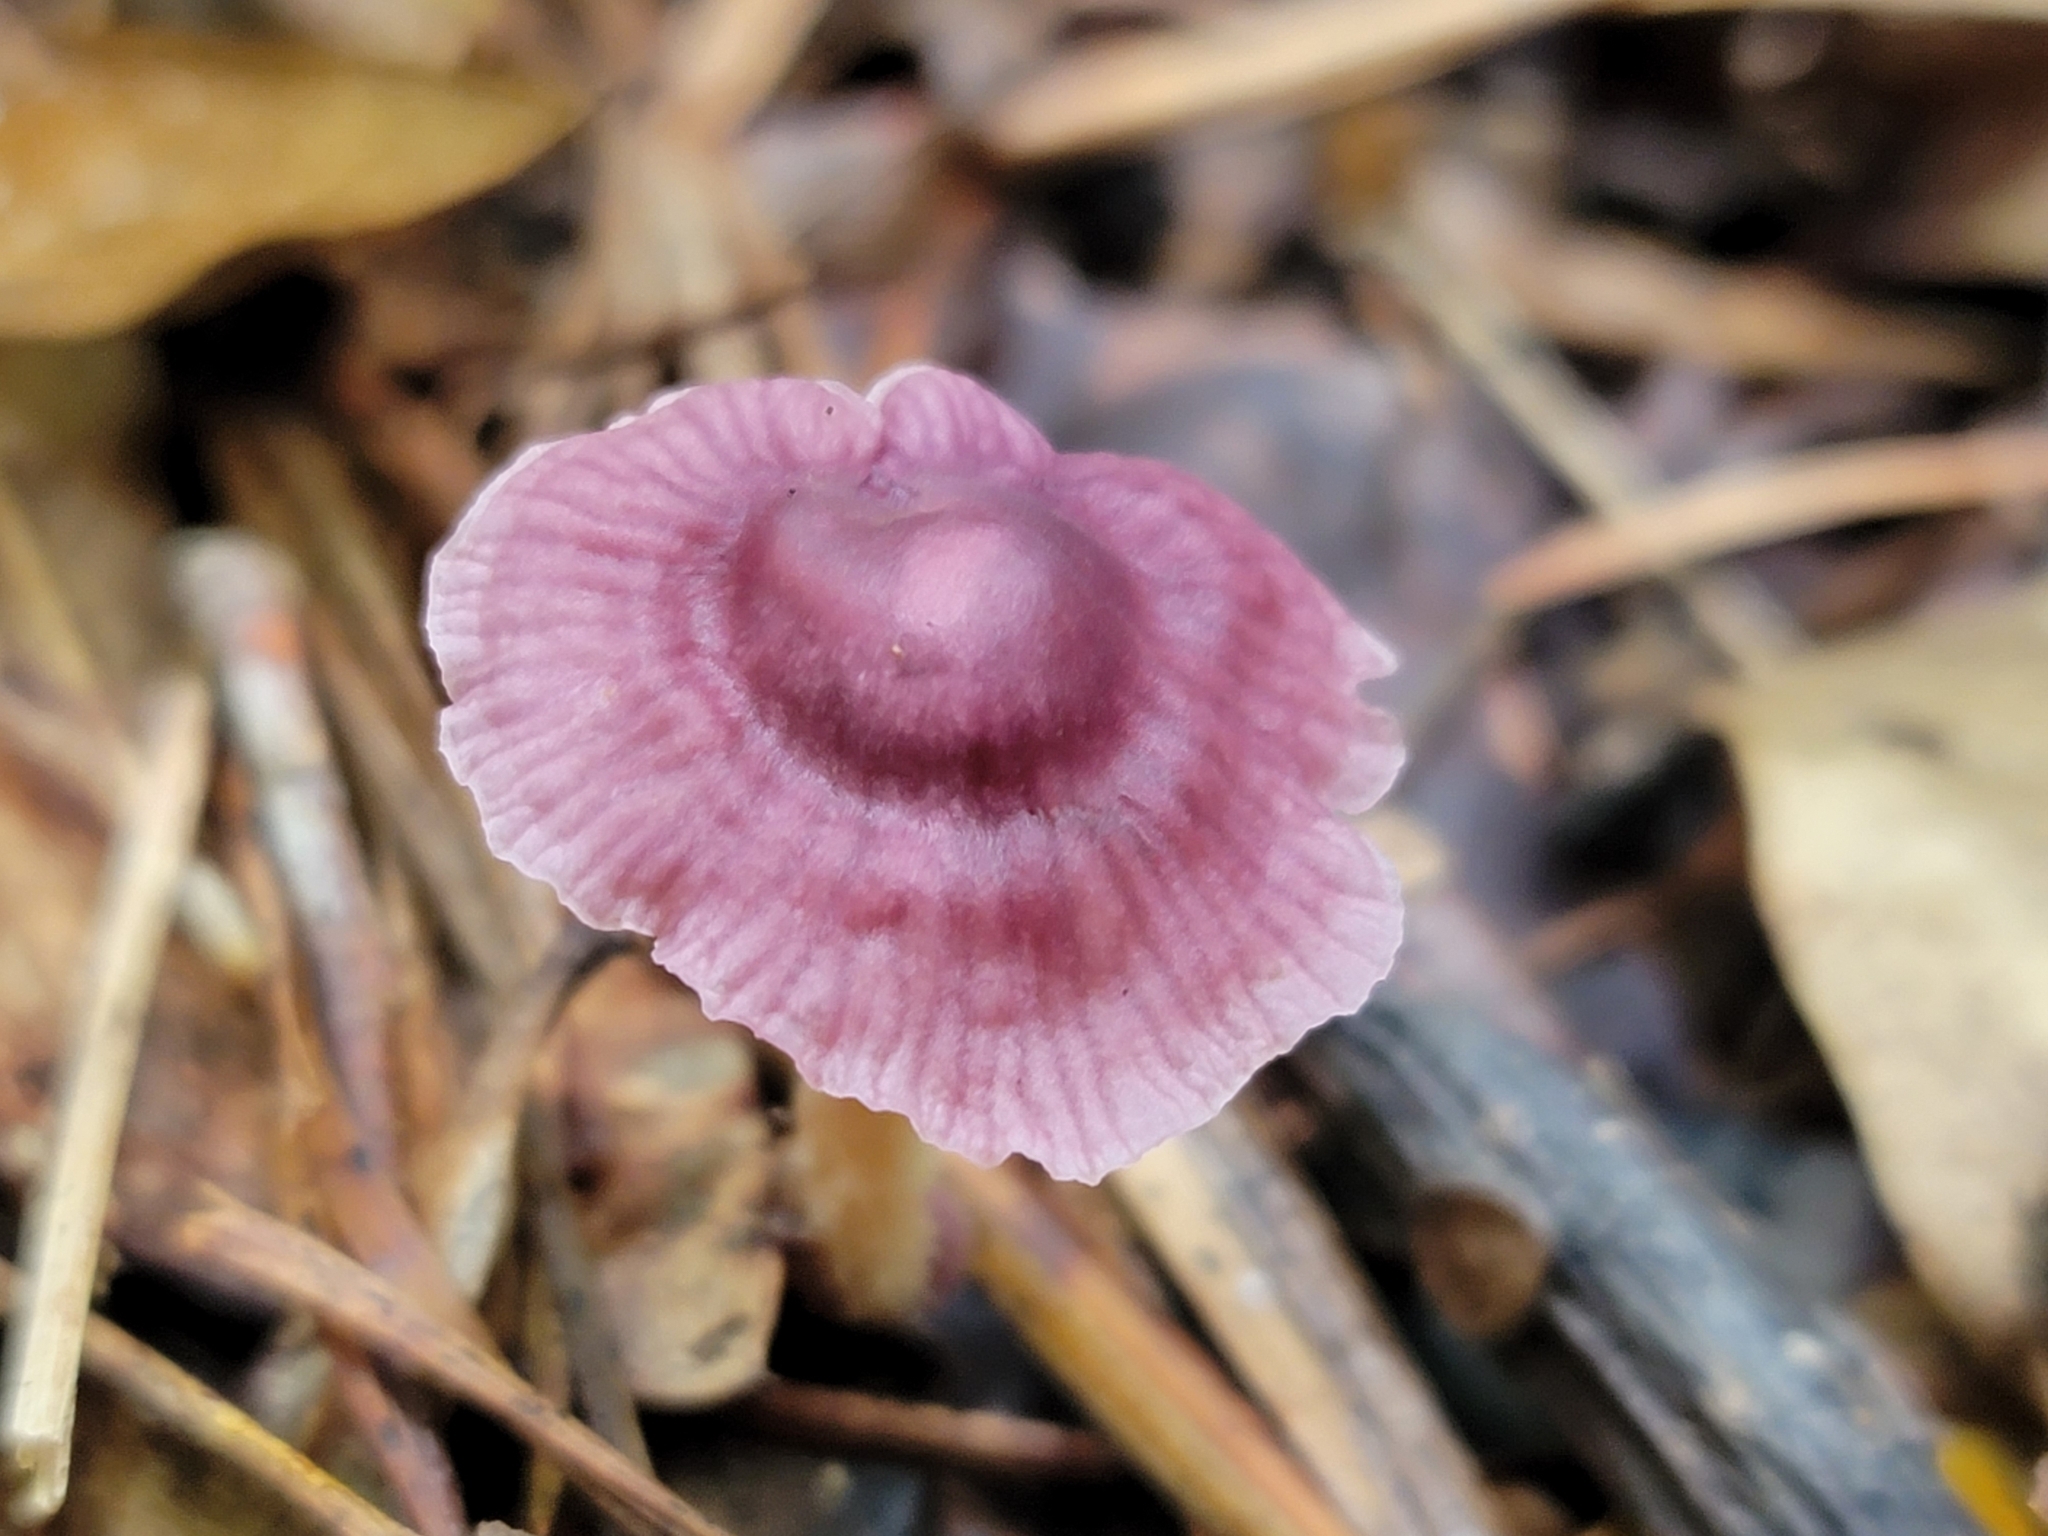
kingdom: Fungi
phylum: Basidiomycota
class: Agaricomycetes
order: Agaricales
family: Omphalotaceae
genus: Gymnopus
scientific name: Gymnopus iocephalus
